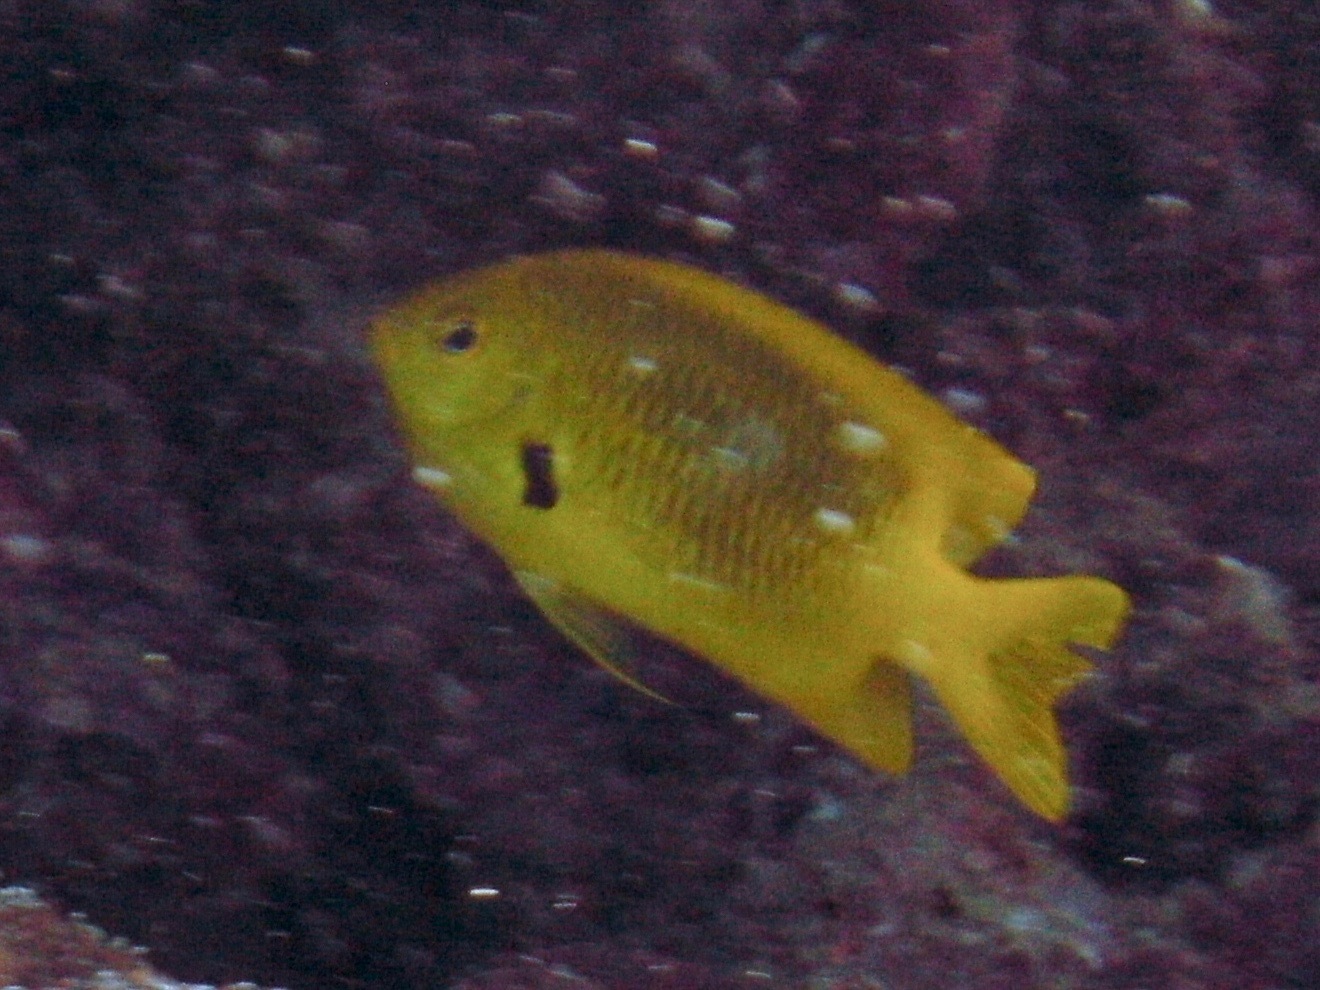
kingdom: Animalia
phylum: Chordata
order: Perciformes
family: Pomacentridae
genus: Pomacentrus
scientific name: Pomacentrus sulfureus
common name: Sulfur damsel
